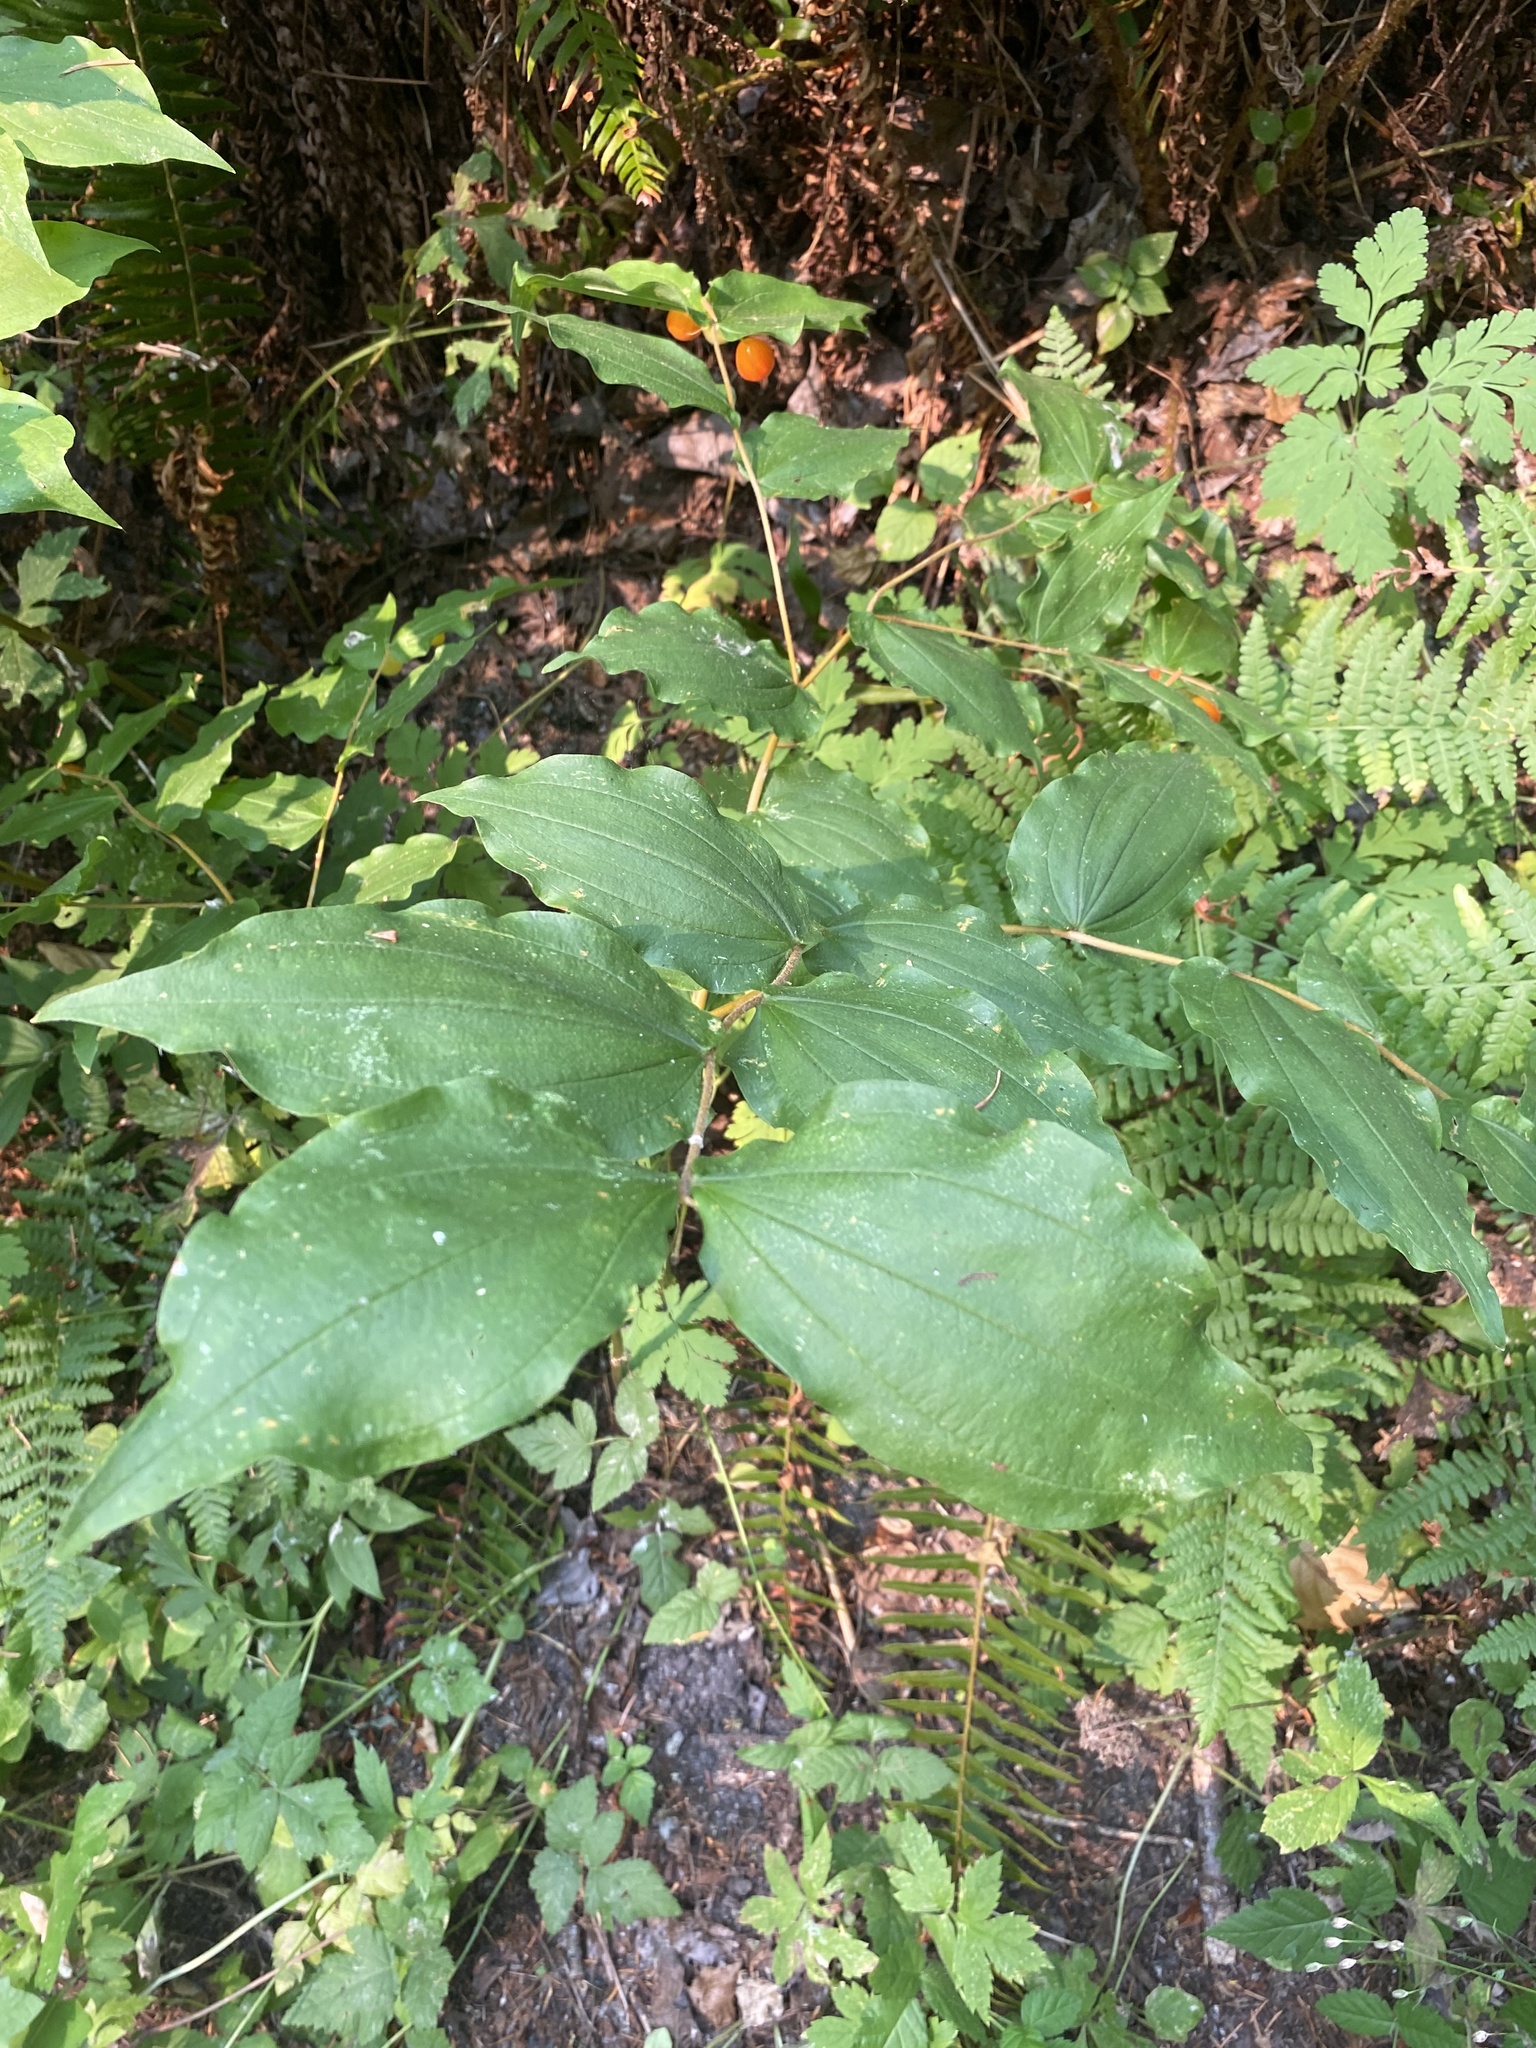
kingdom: Plantae
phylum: Tracheophyta
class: Liliopsida
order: Liliales
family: Liliaceae
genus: Prosartes
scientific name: Prosartes hookeri
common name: Fairy-bells
